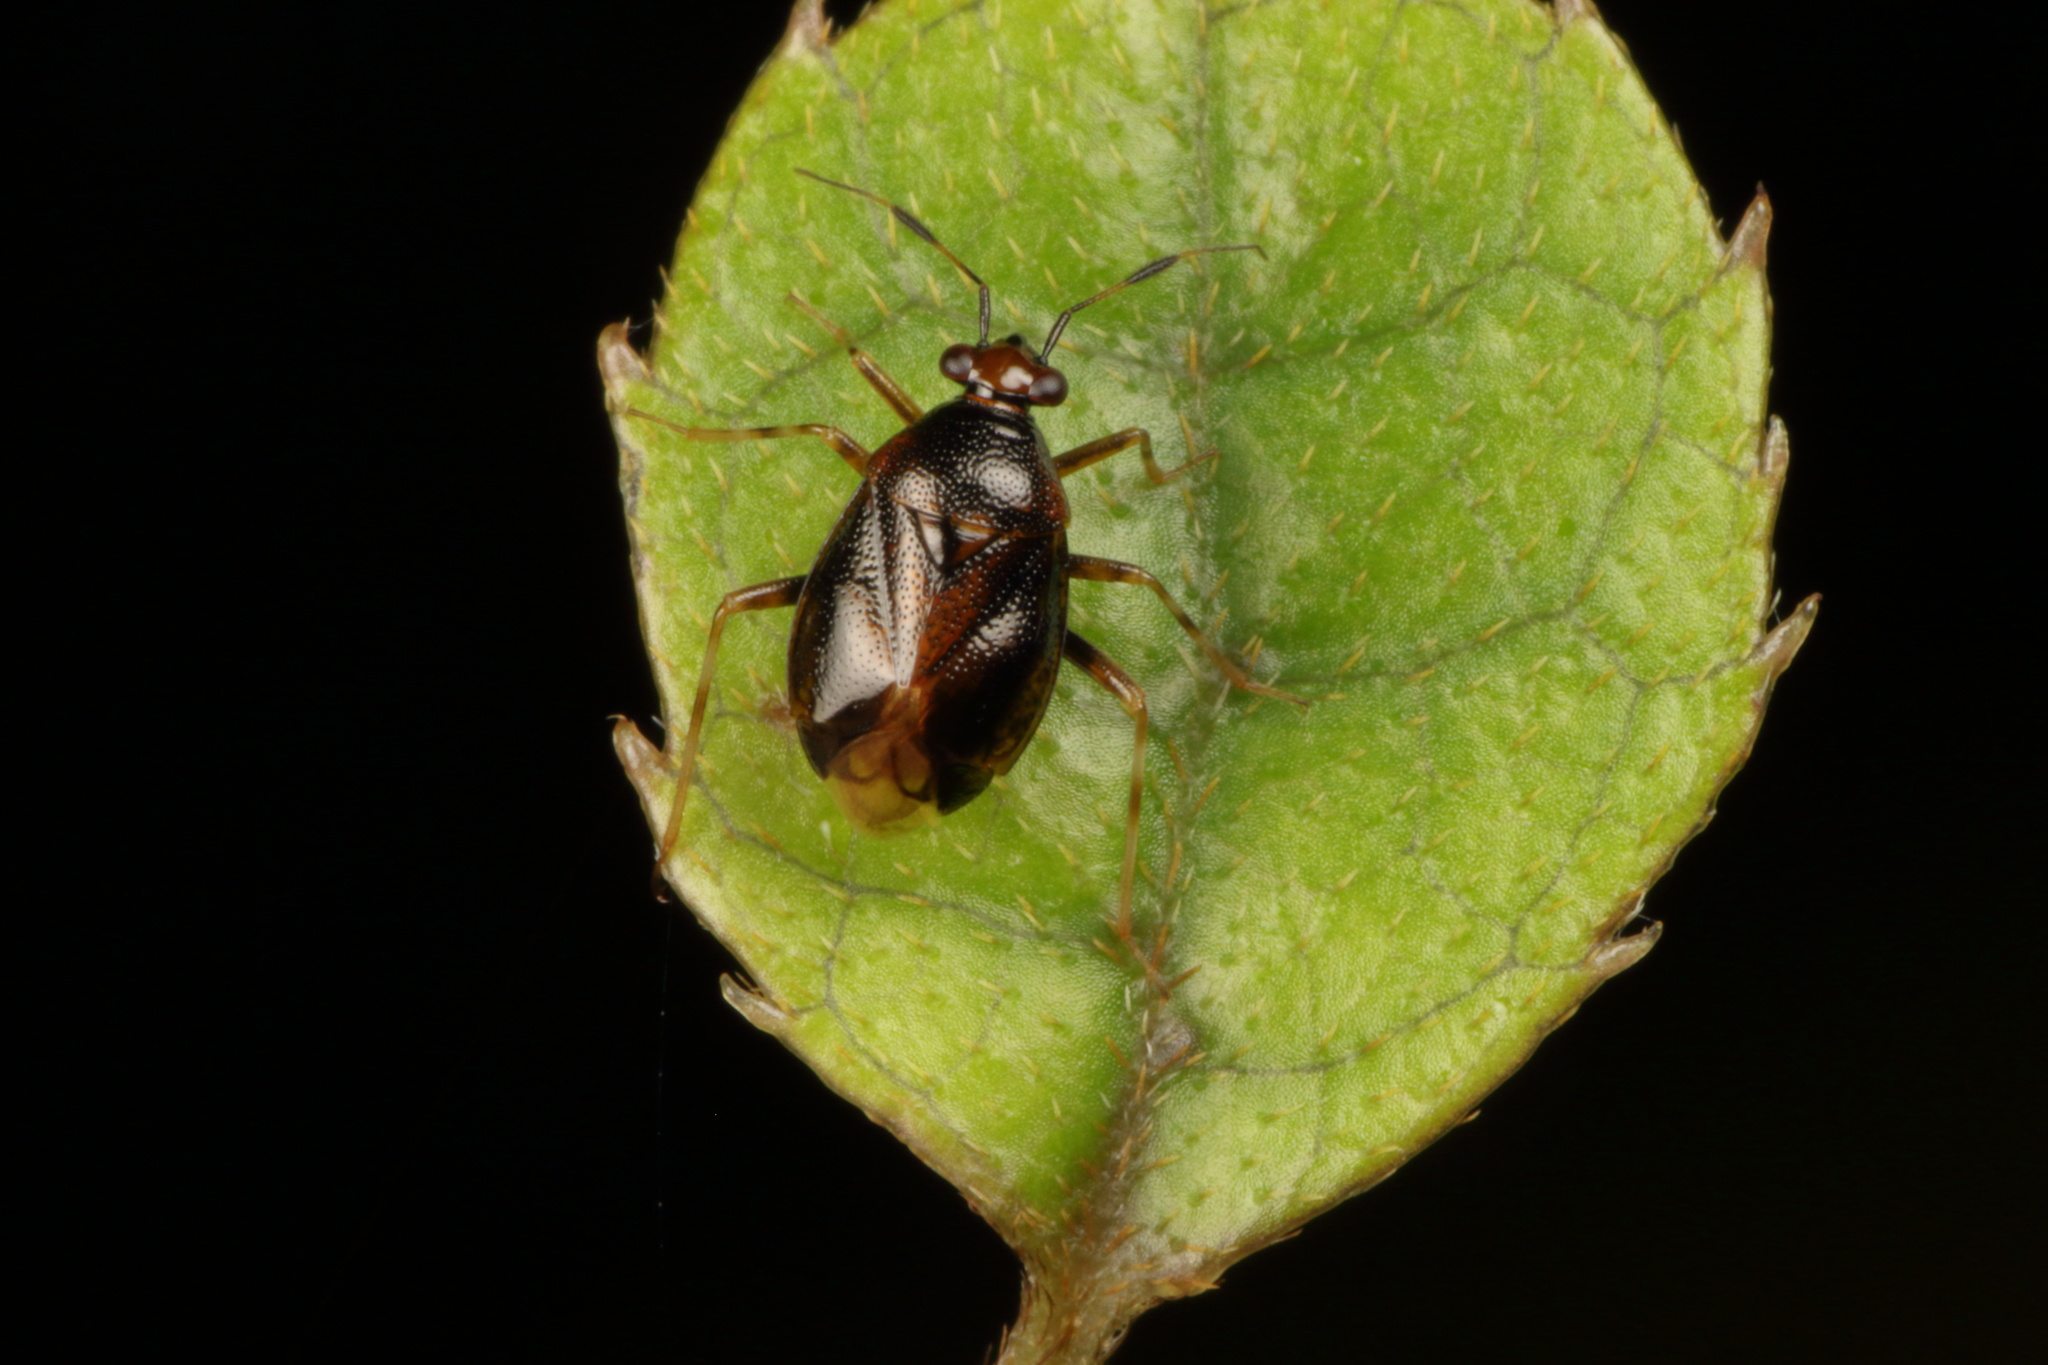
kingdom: Animalia
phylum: Arthropoda
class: Insecta
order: Hemiptera
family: Miridae
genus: Deraeocoris
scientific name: Deraeocoris maoricus
